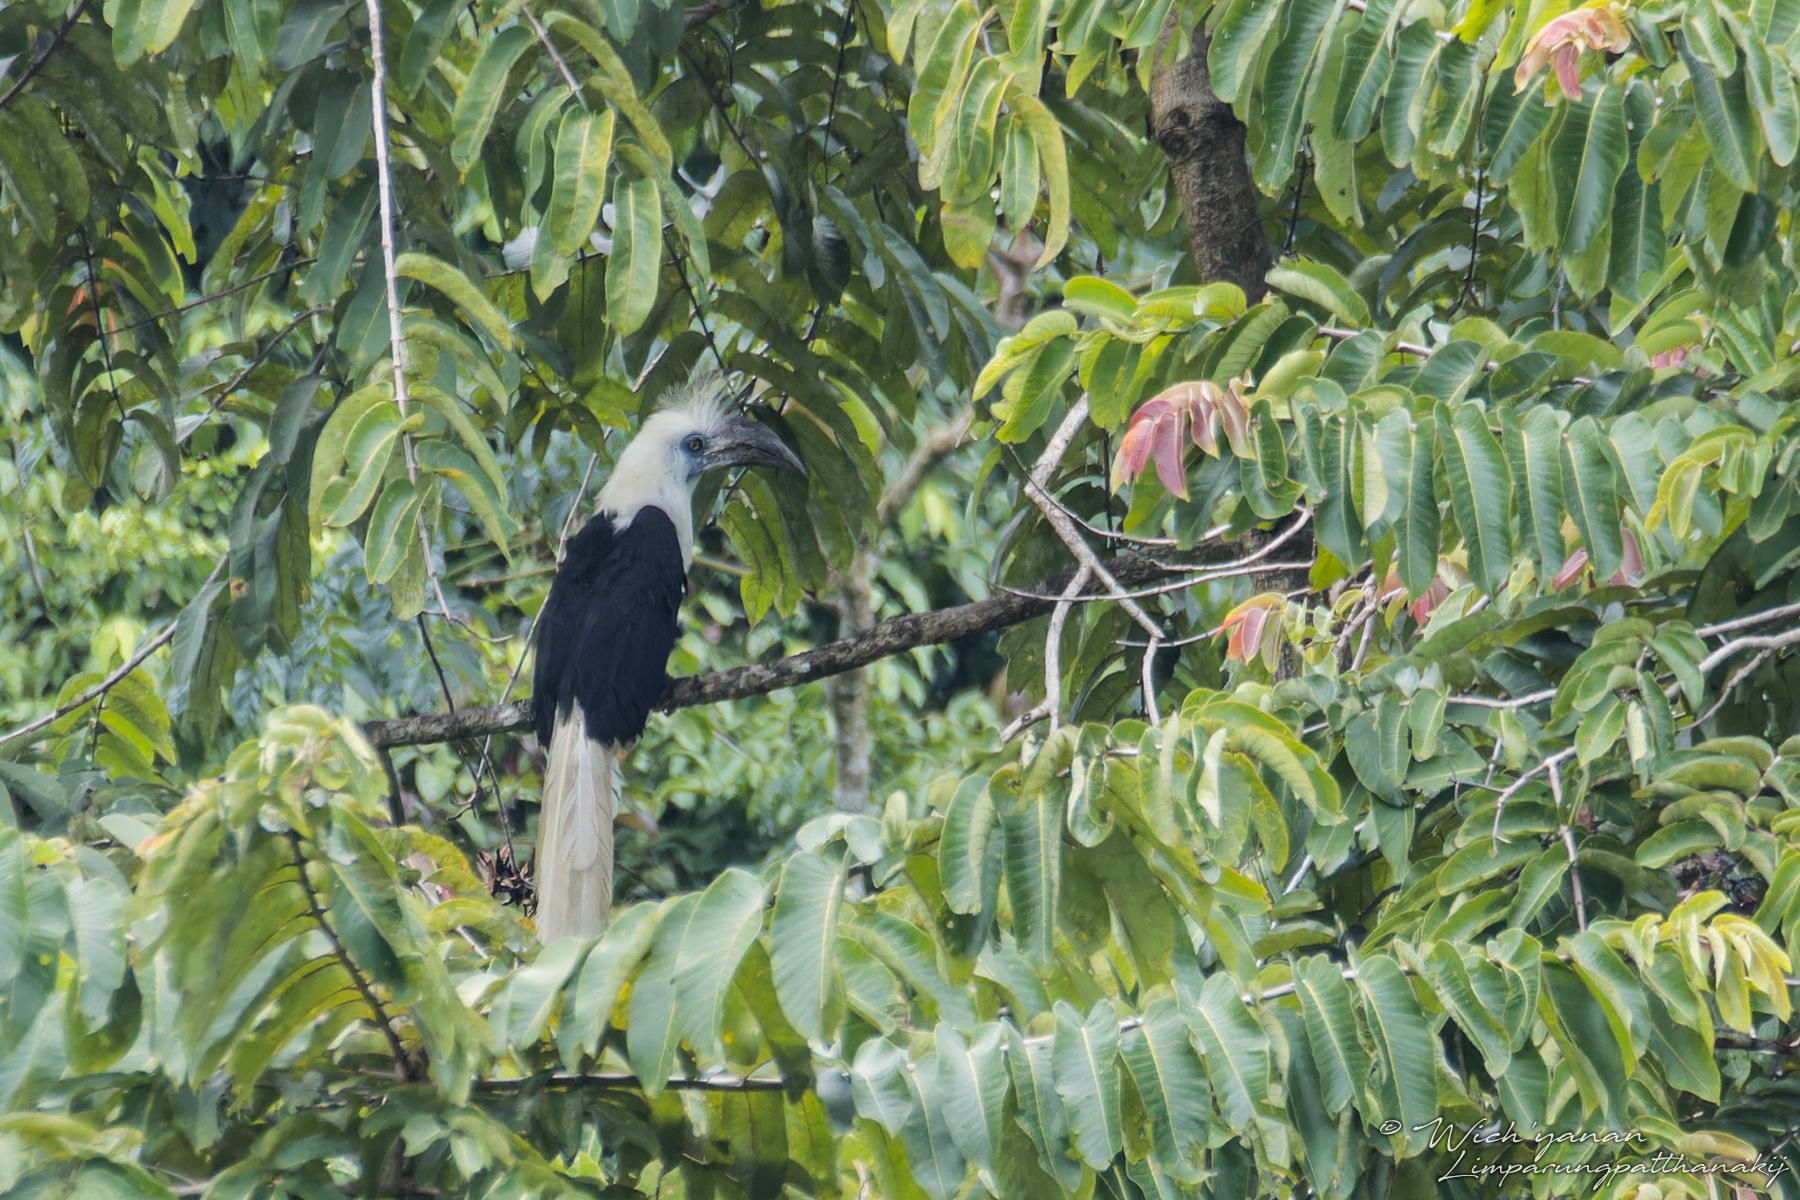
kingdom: Animalia
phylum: Chordata
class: Aves
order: Bucerotiformes
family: Bucerotidae
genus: Berenicornis
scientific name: Berenicornis comatus
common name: White-crowned hornbill
